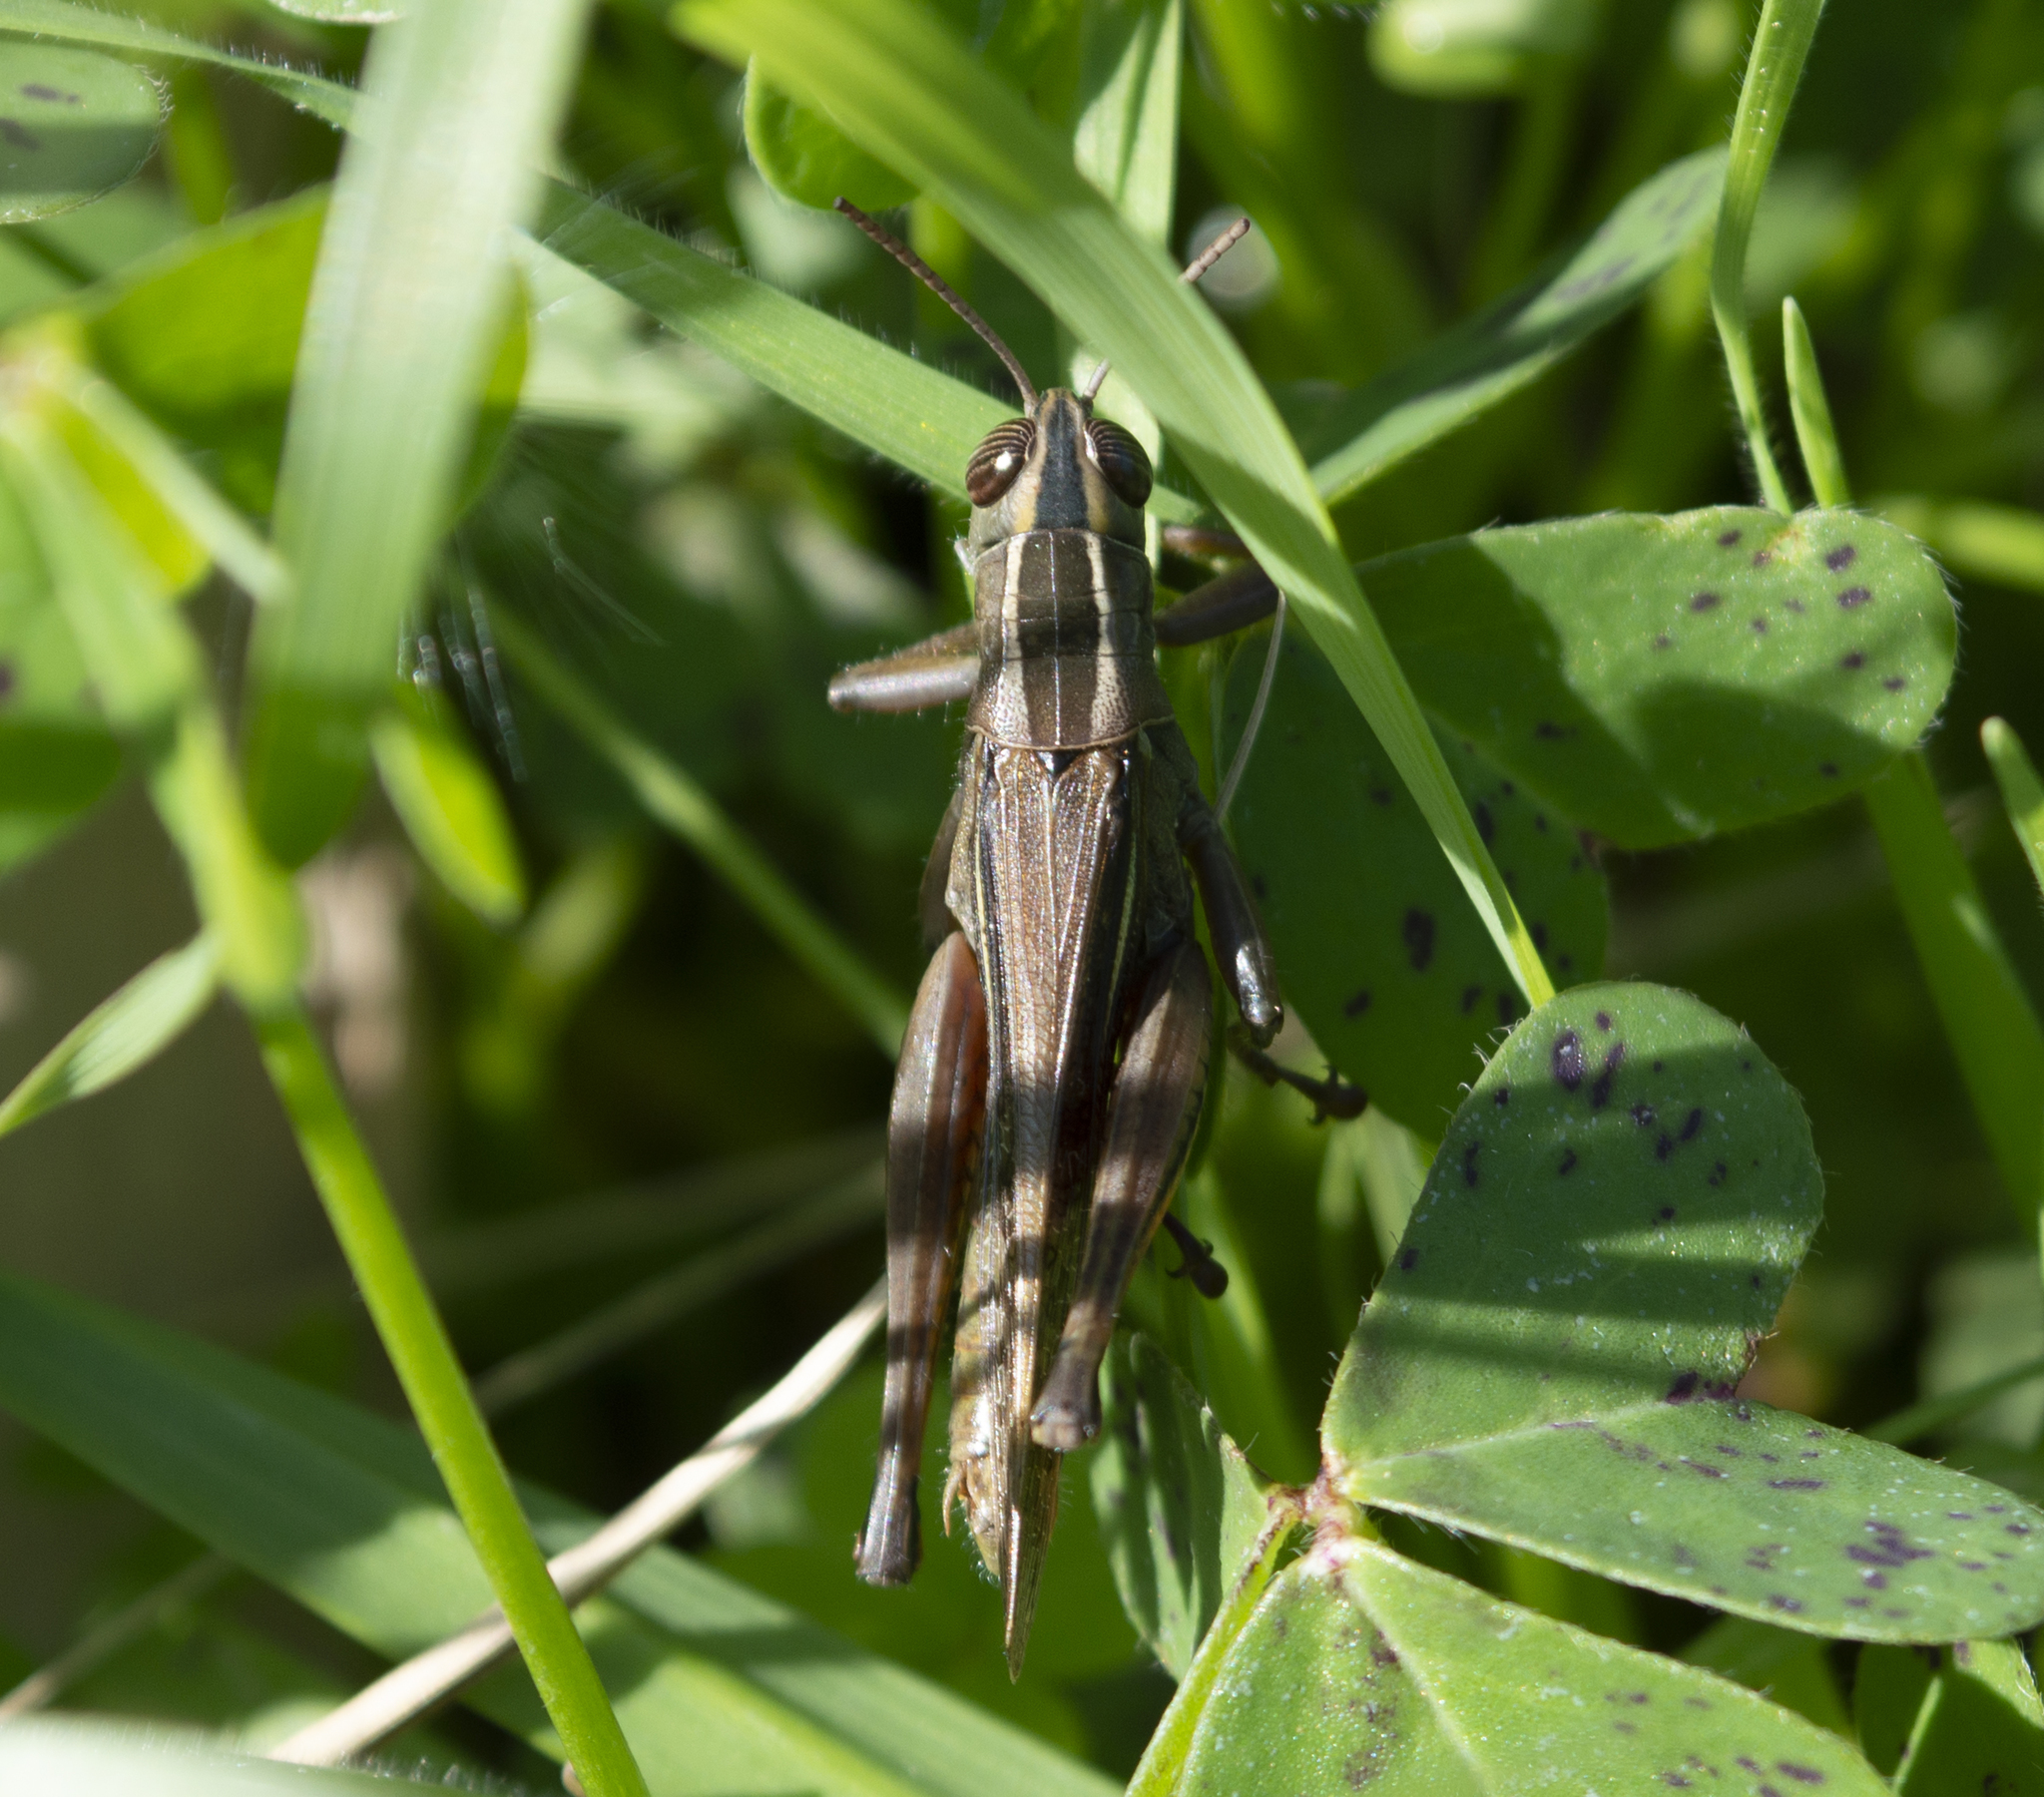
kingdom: Animalia
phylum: Arthropoda
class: Insecta
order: Orthoptera
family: Acrididae
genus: Eyprepocnemis
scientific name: Eyprepocnemis plorans
